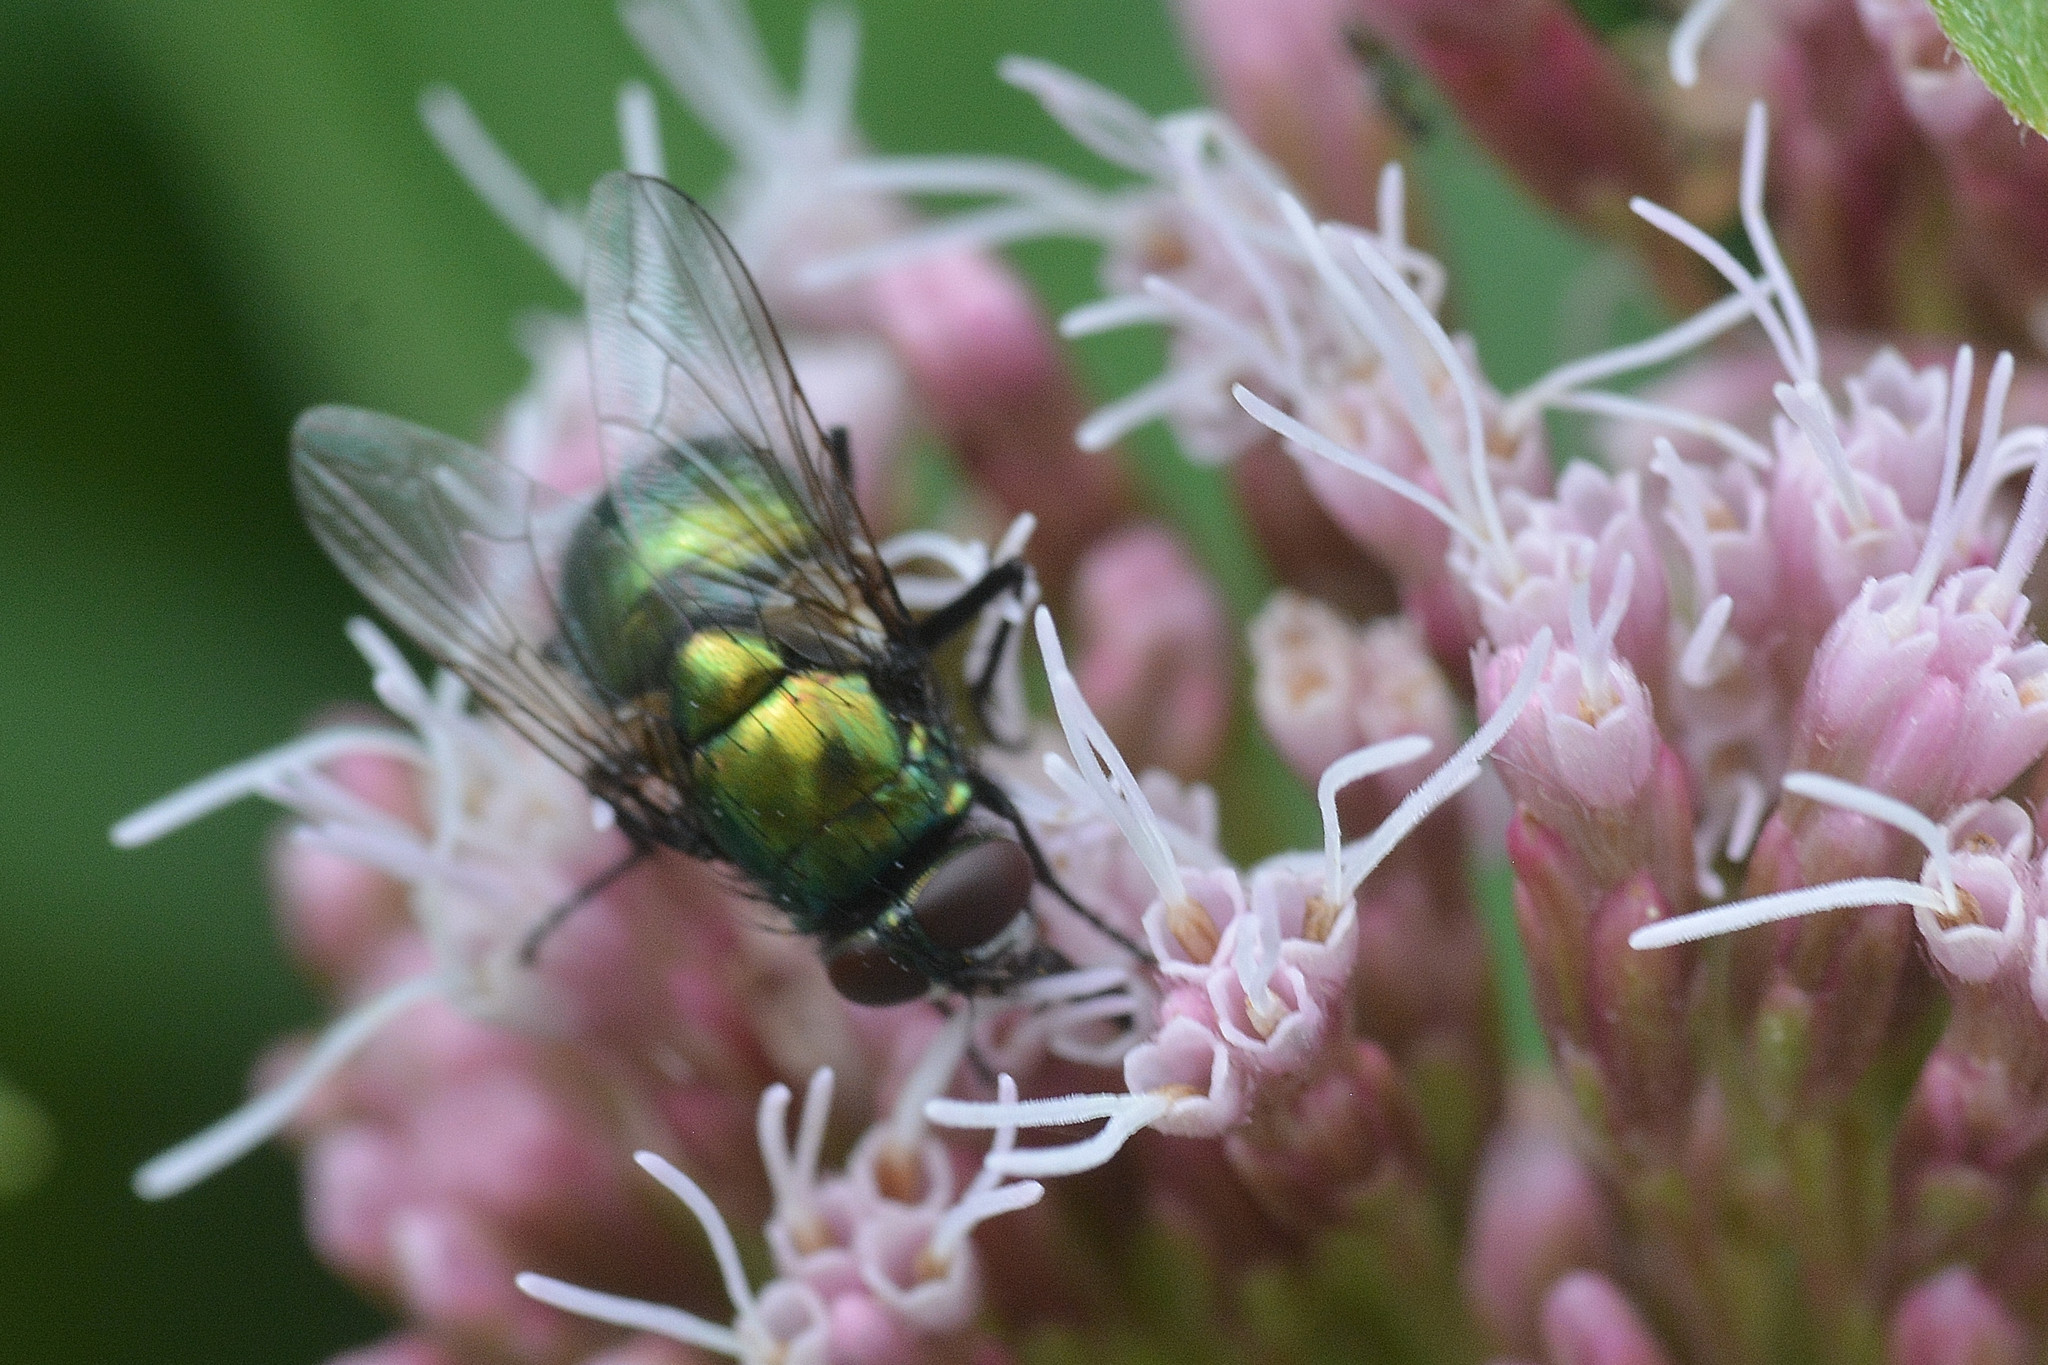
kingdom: Animalia
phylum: Arthropoda
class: Insecta
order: Diptera
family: Muscidae
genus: Neomyia
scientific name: Neomyia cornicina
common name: House fly
